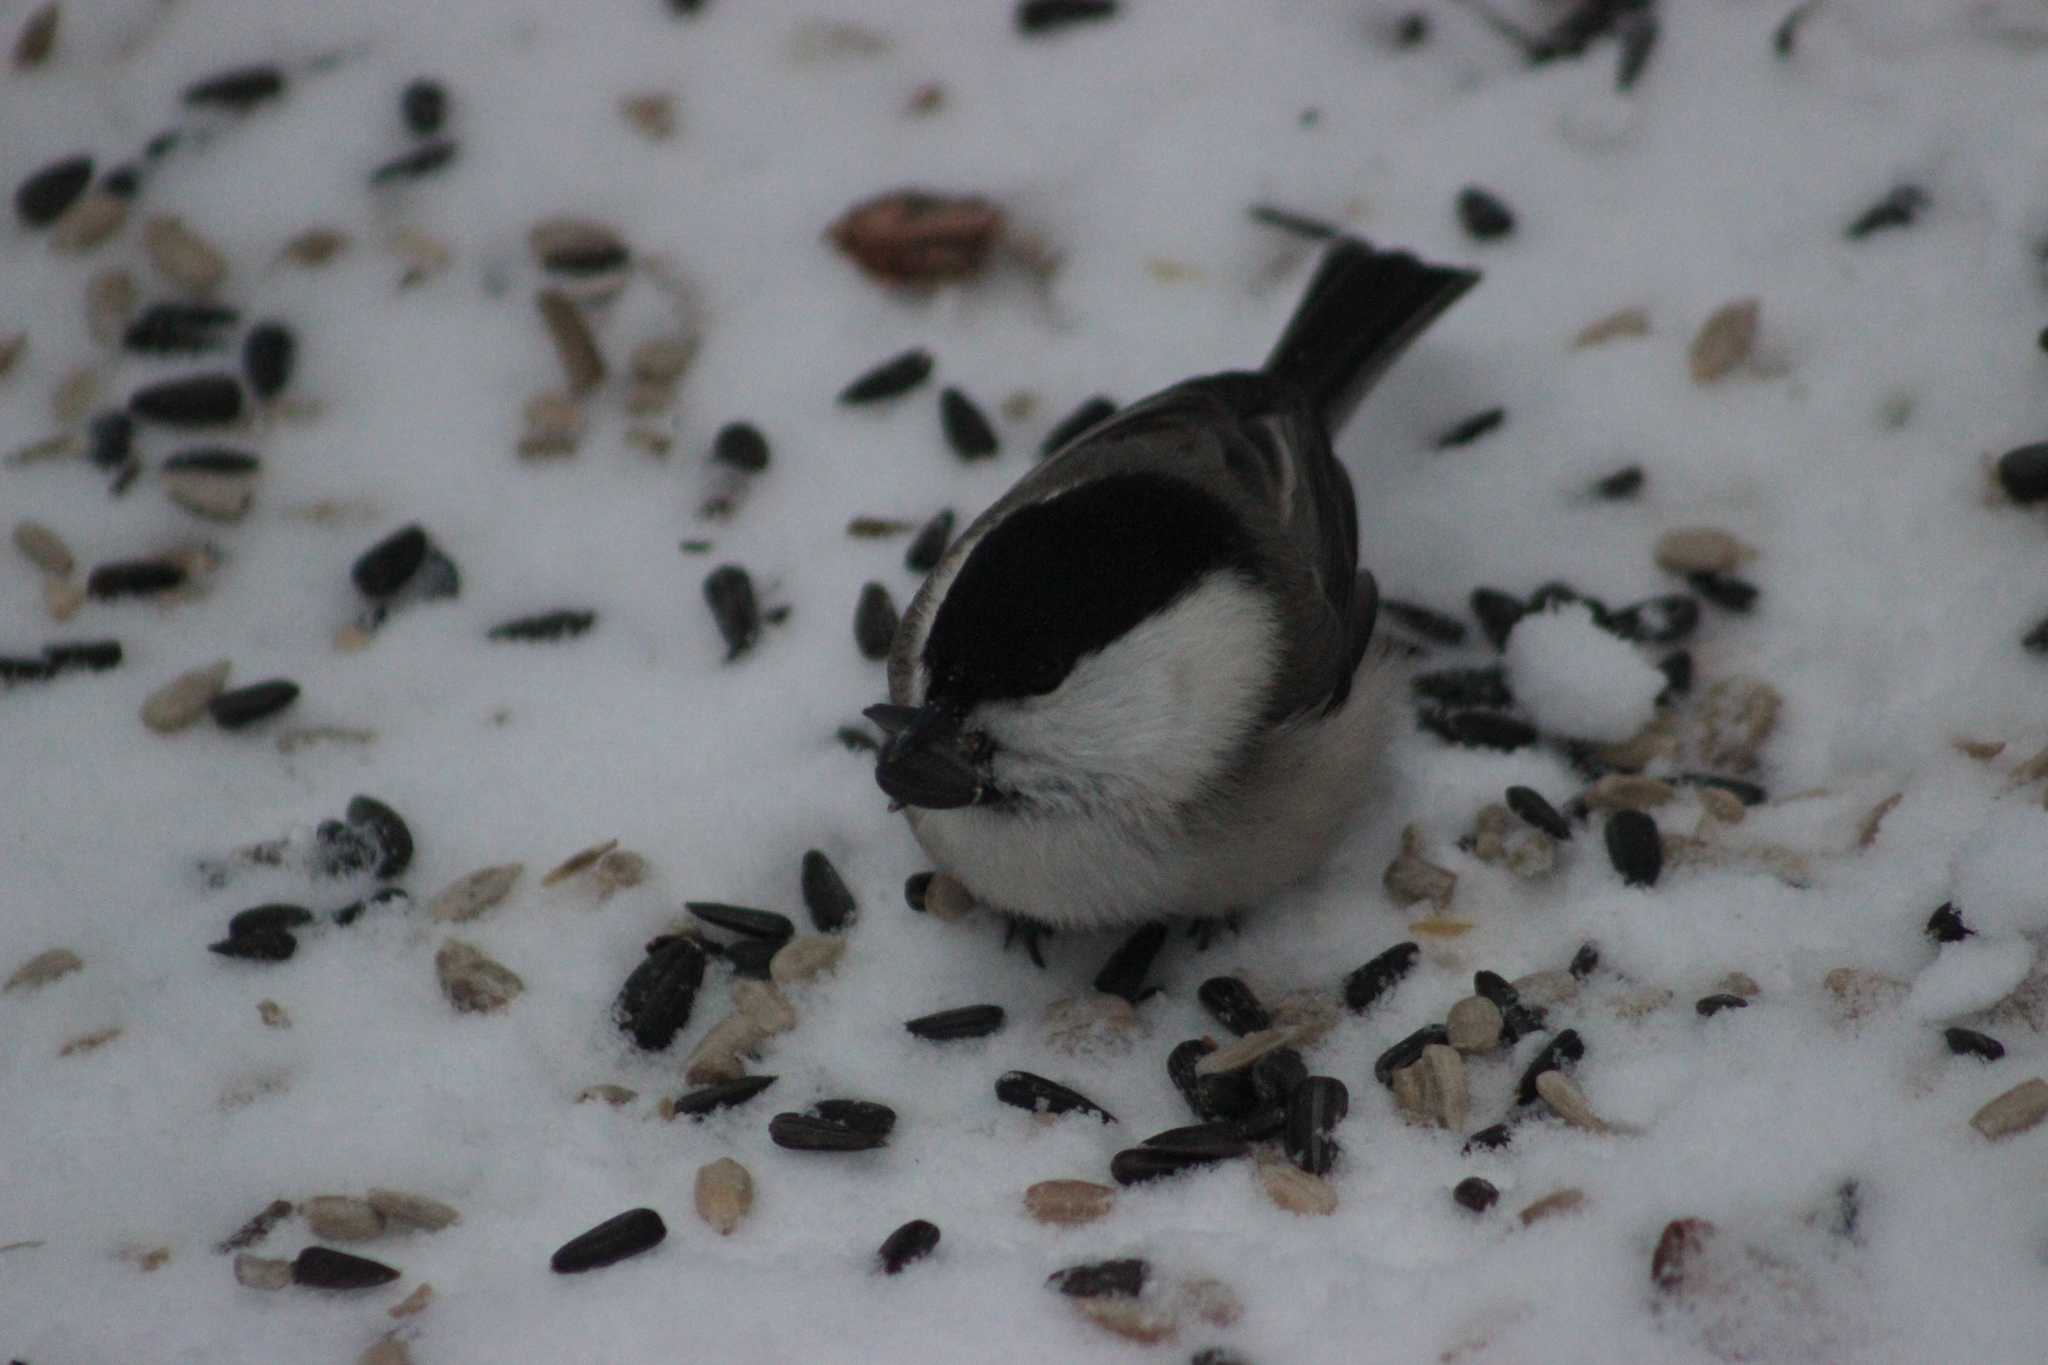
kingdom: Animalia
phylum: Chordata
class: Aves
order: Passeriformes
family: Paridae
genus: Poecile
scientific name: Poecile montanus
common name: Willow tit
